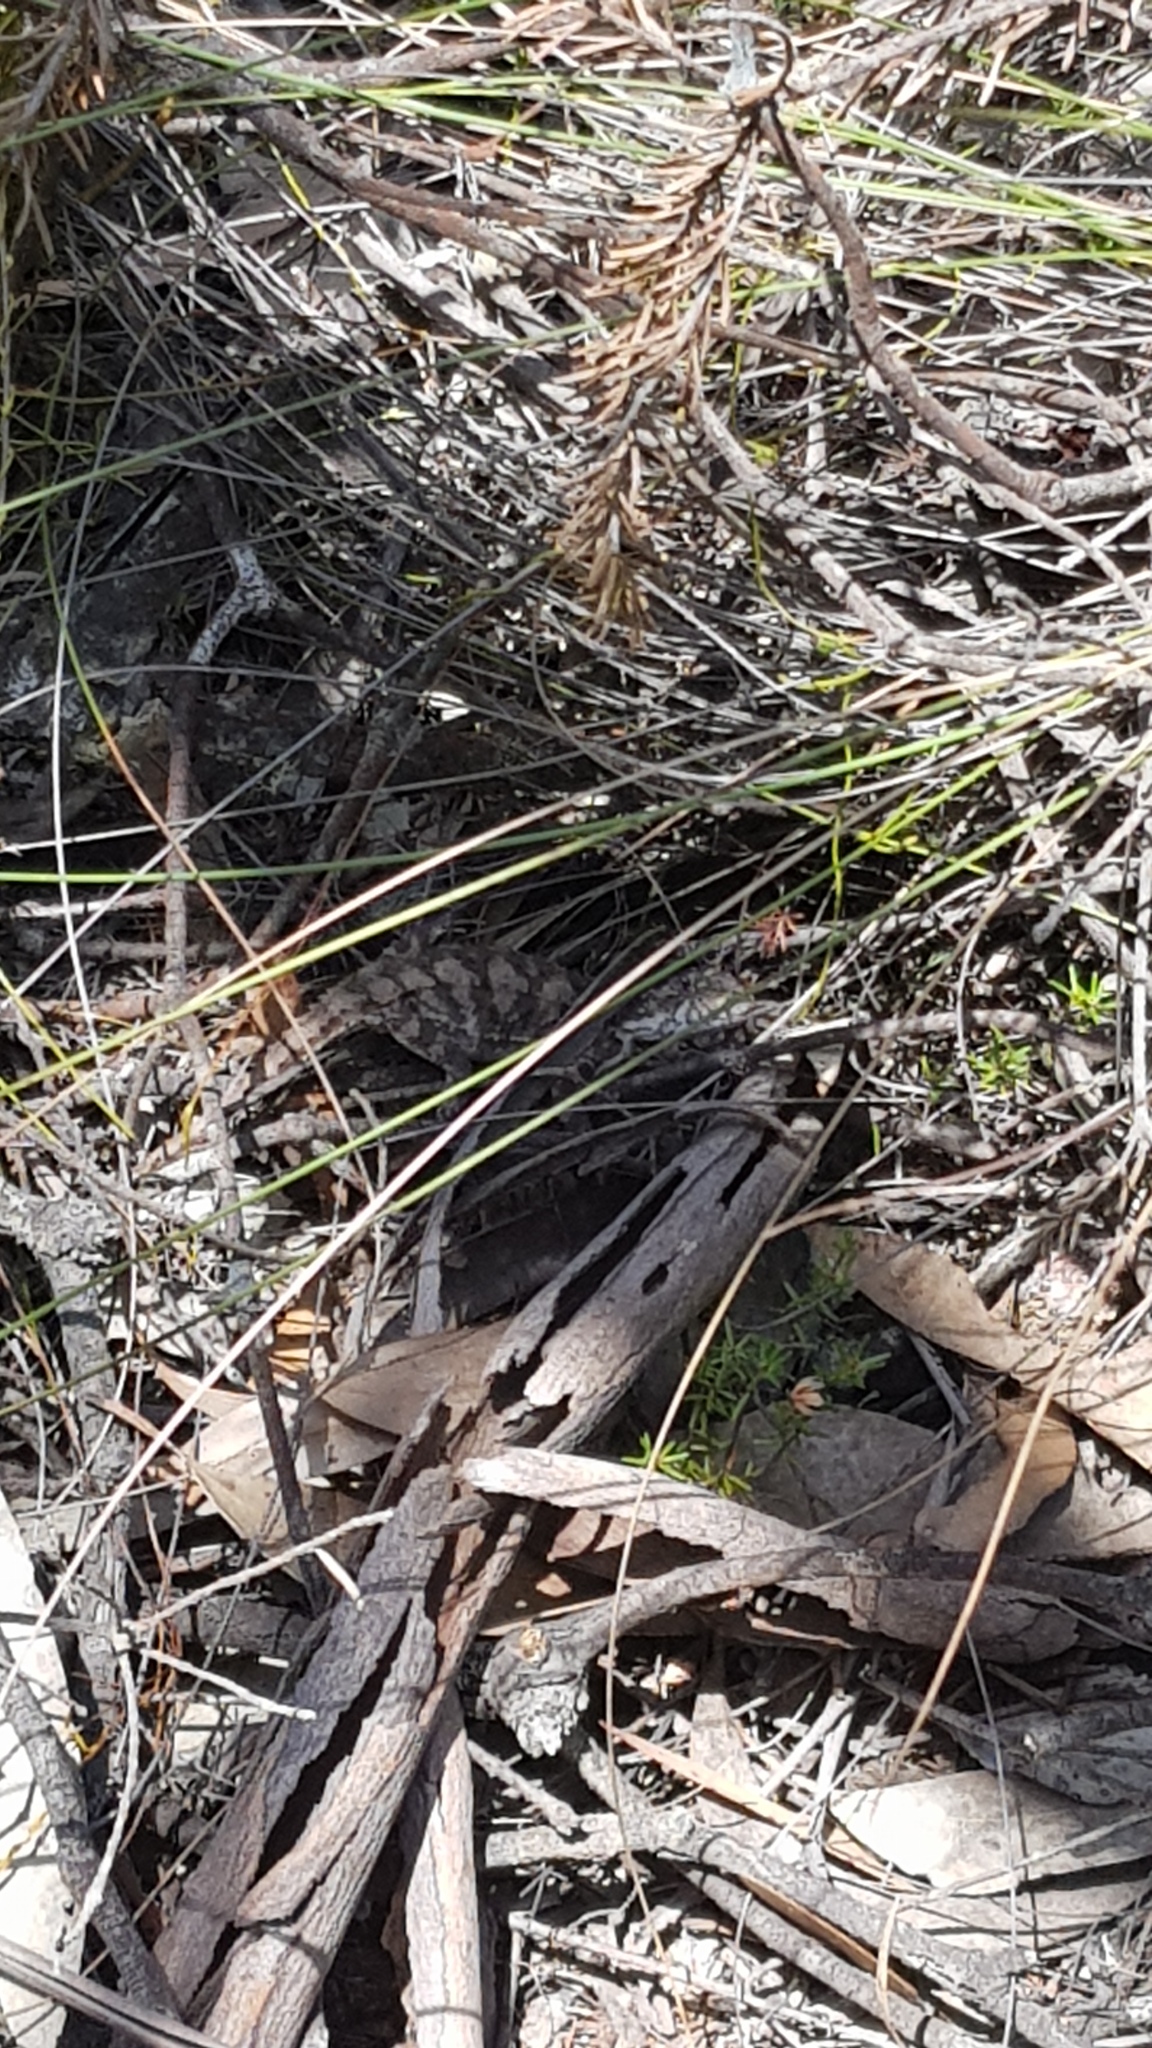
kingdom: Animalia
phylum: Chordata
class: Squamata
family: Agamidae
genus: Rankinia
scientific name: Rankinia diemensis
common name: Mountain dragon
